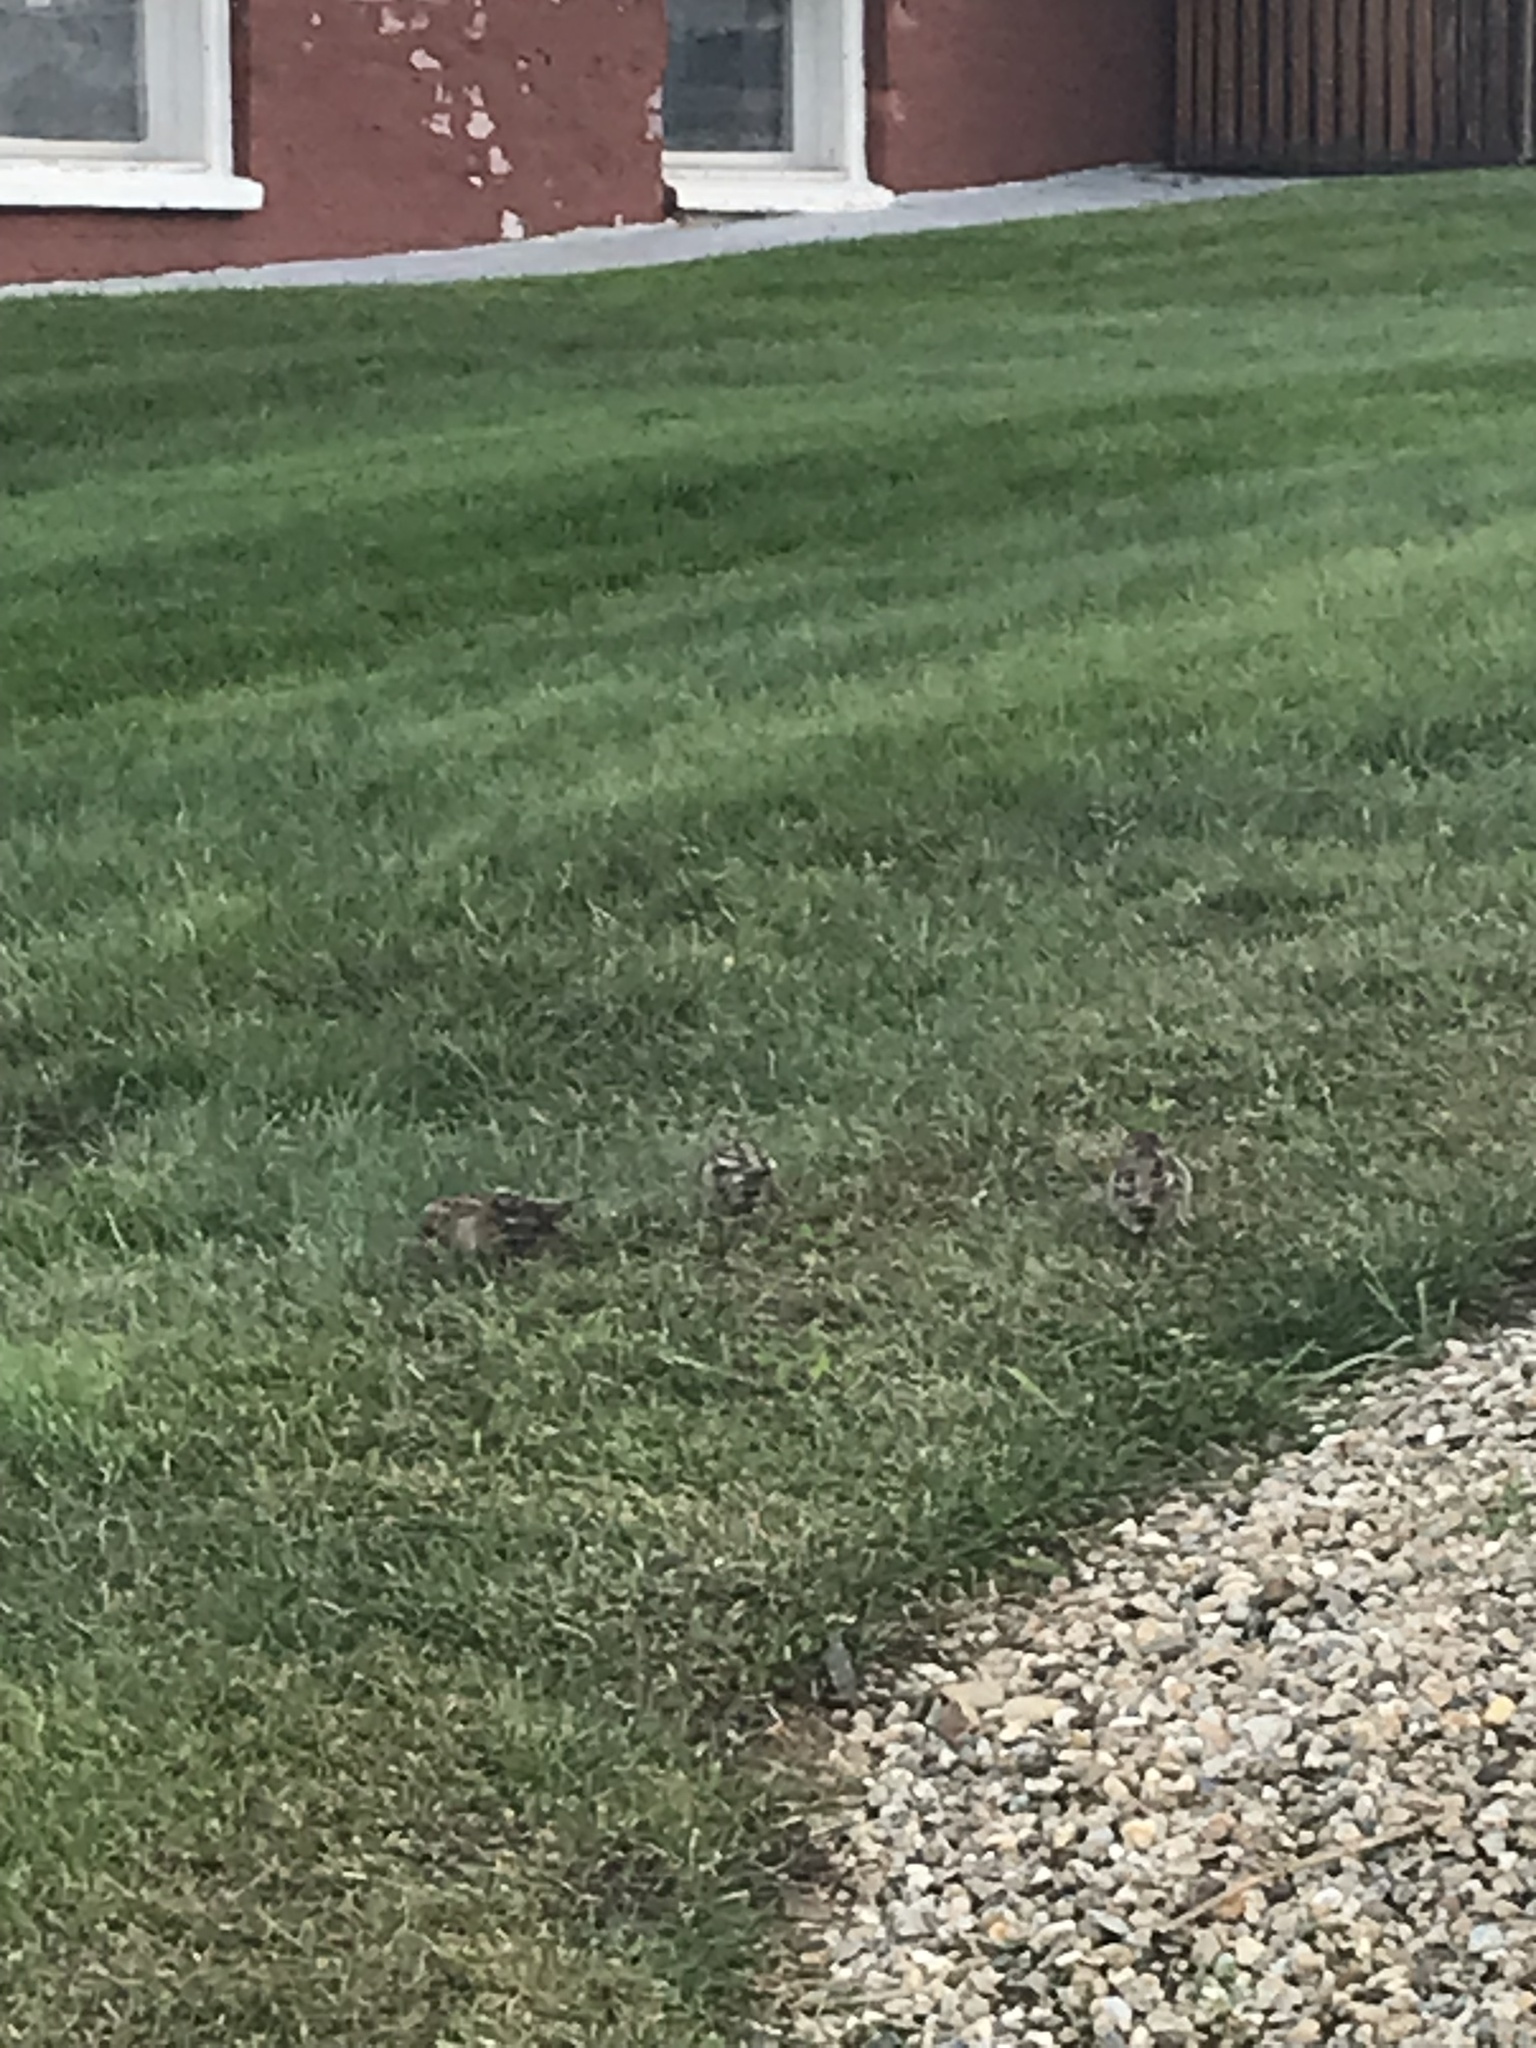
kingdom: Animalia
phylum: Chordata
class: Aves
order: Passeriformes
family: Passeridae
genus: Passer
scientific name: Passer domesticus
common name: House sparrow
